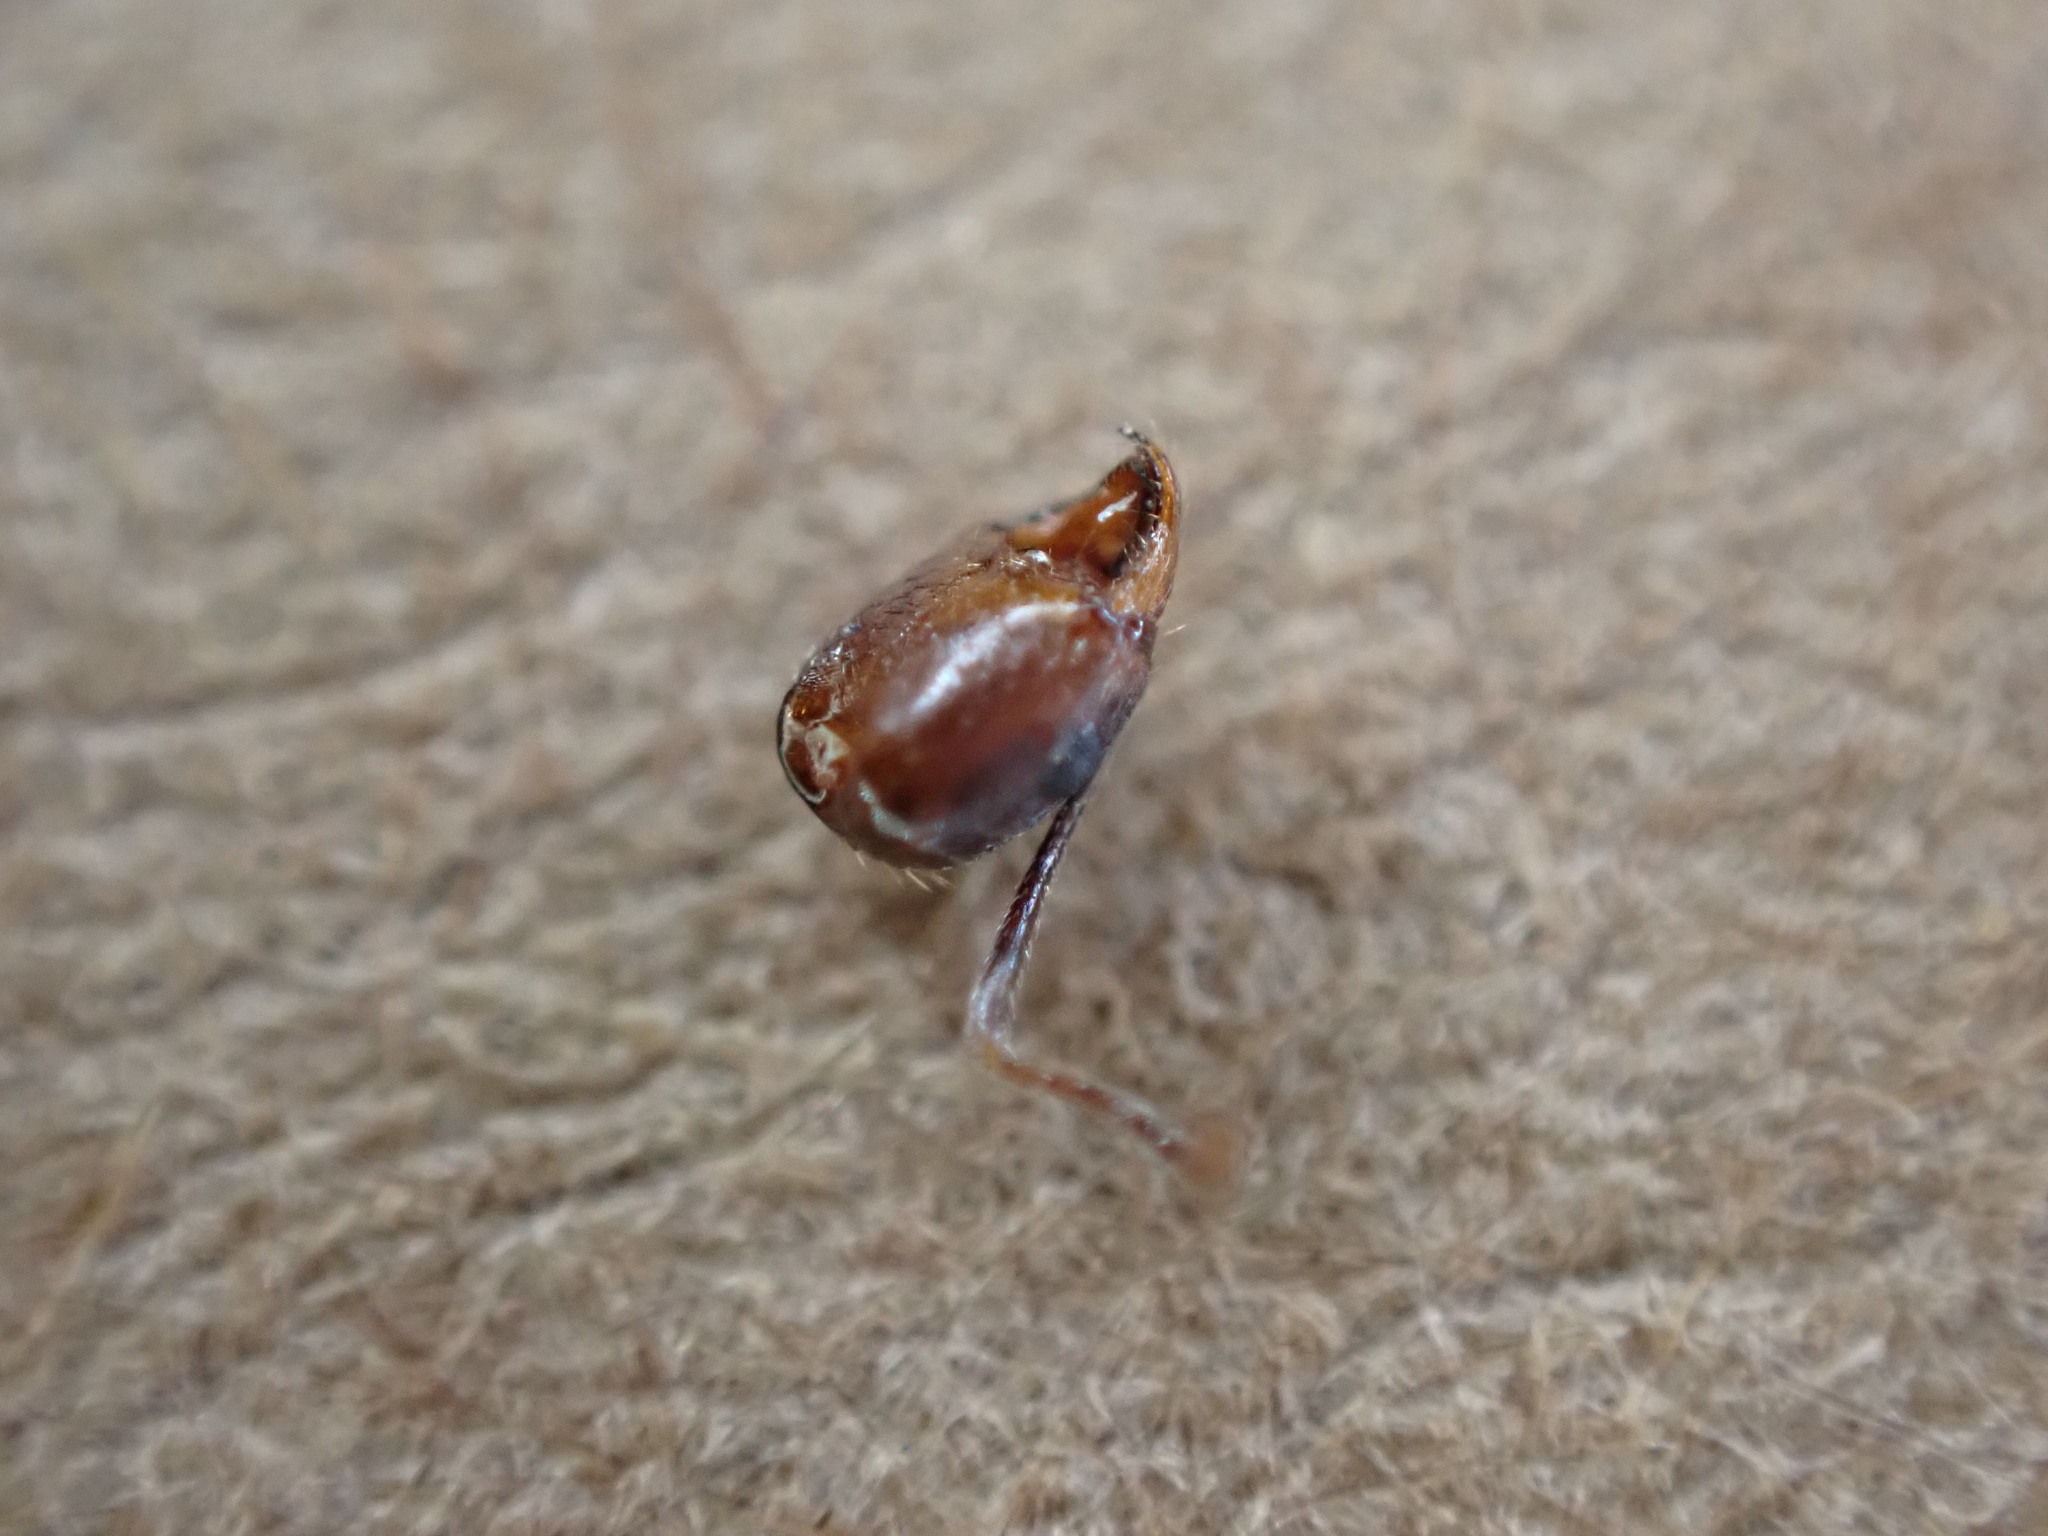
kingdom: Animalia
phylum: Arthropoda
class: Insecta
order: Hymenoptera
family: Formicidae
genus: Aphaenogaster
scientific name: Aphaenogaster rudis
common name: Winnow ant
